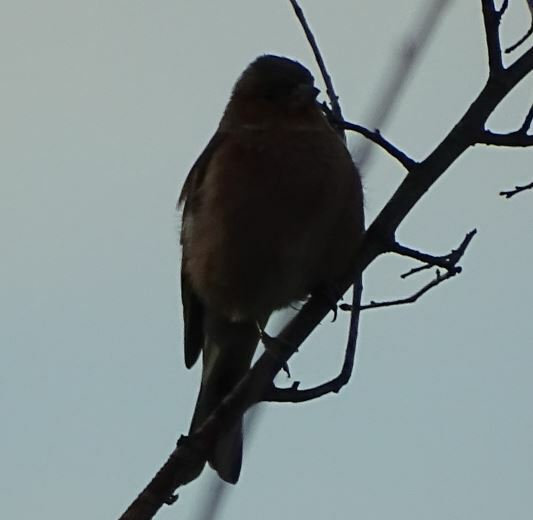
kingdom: Animalia
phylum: Chordata
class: Aves
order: Passeriformes
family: Fringillidae
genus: Fringilla
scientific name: Fringilla coelebs
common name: Common chaffinch
